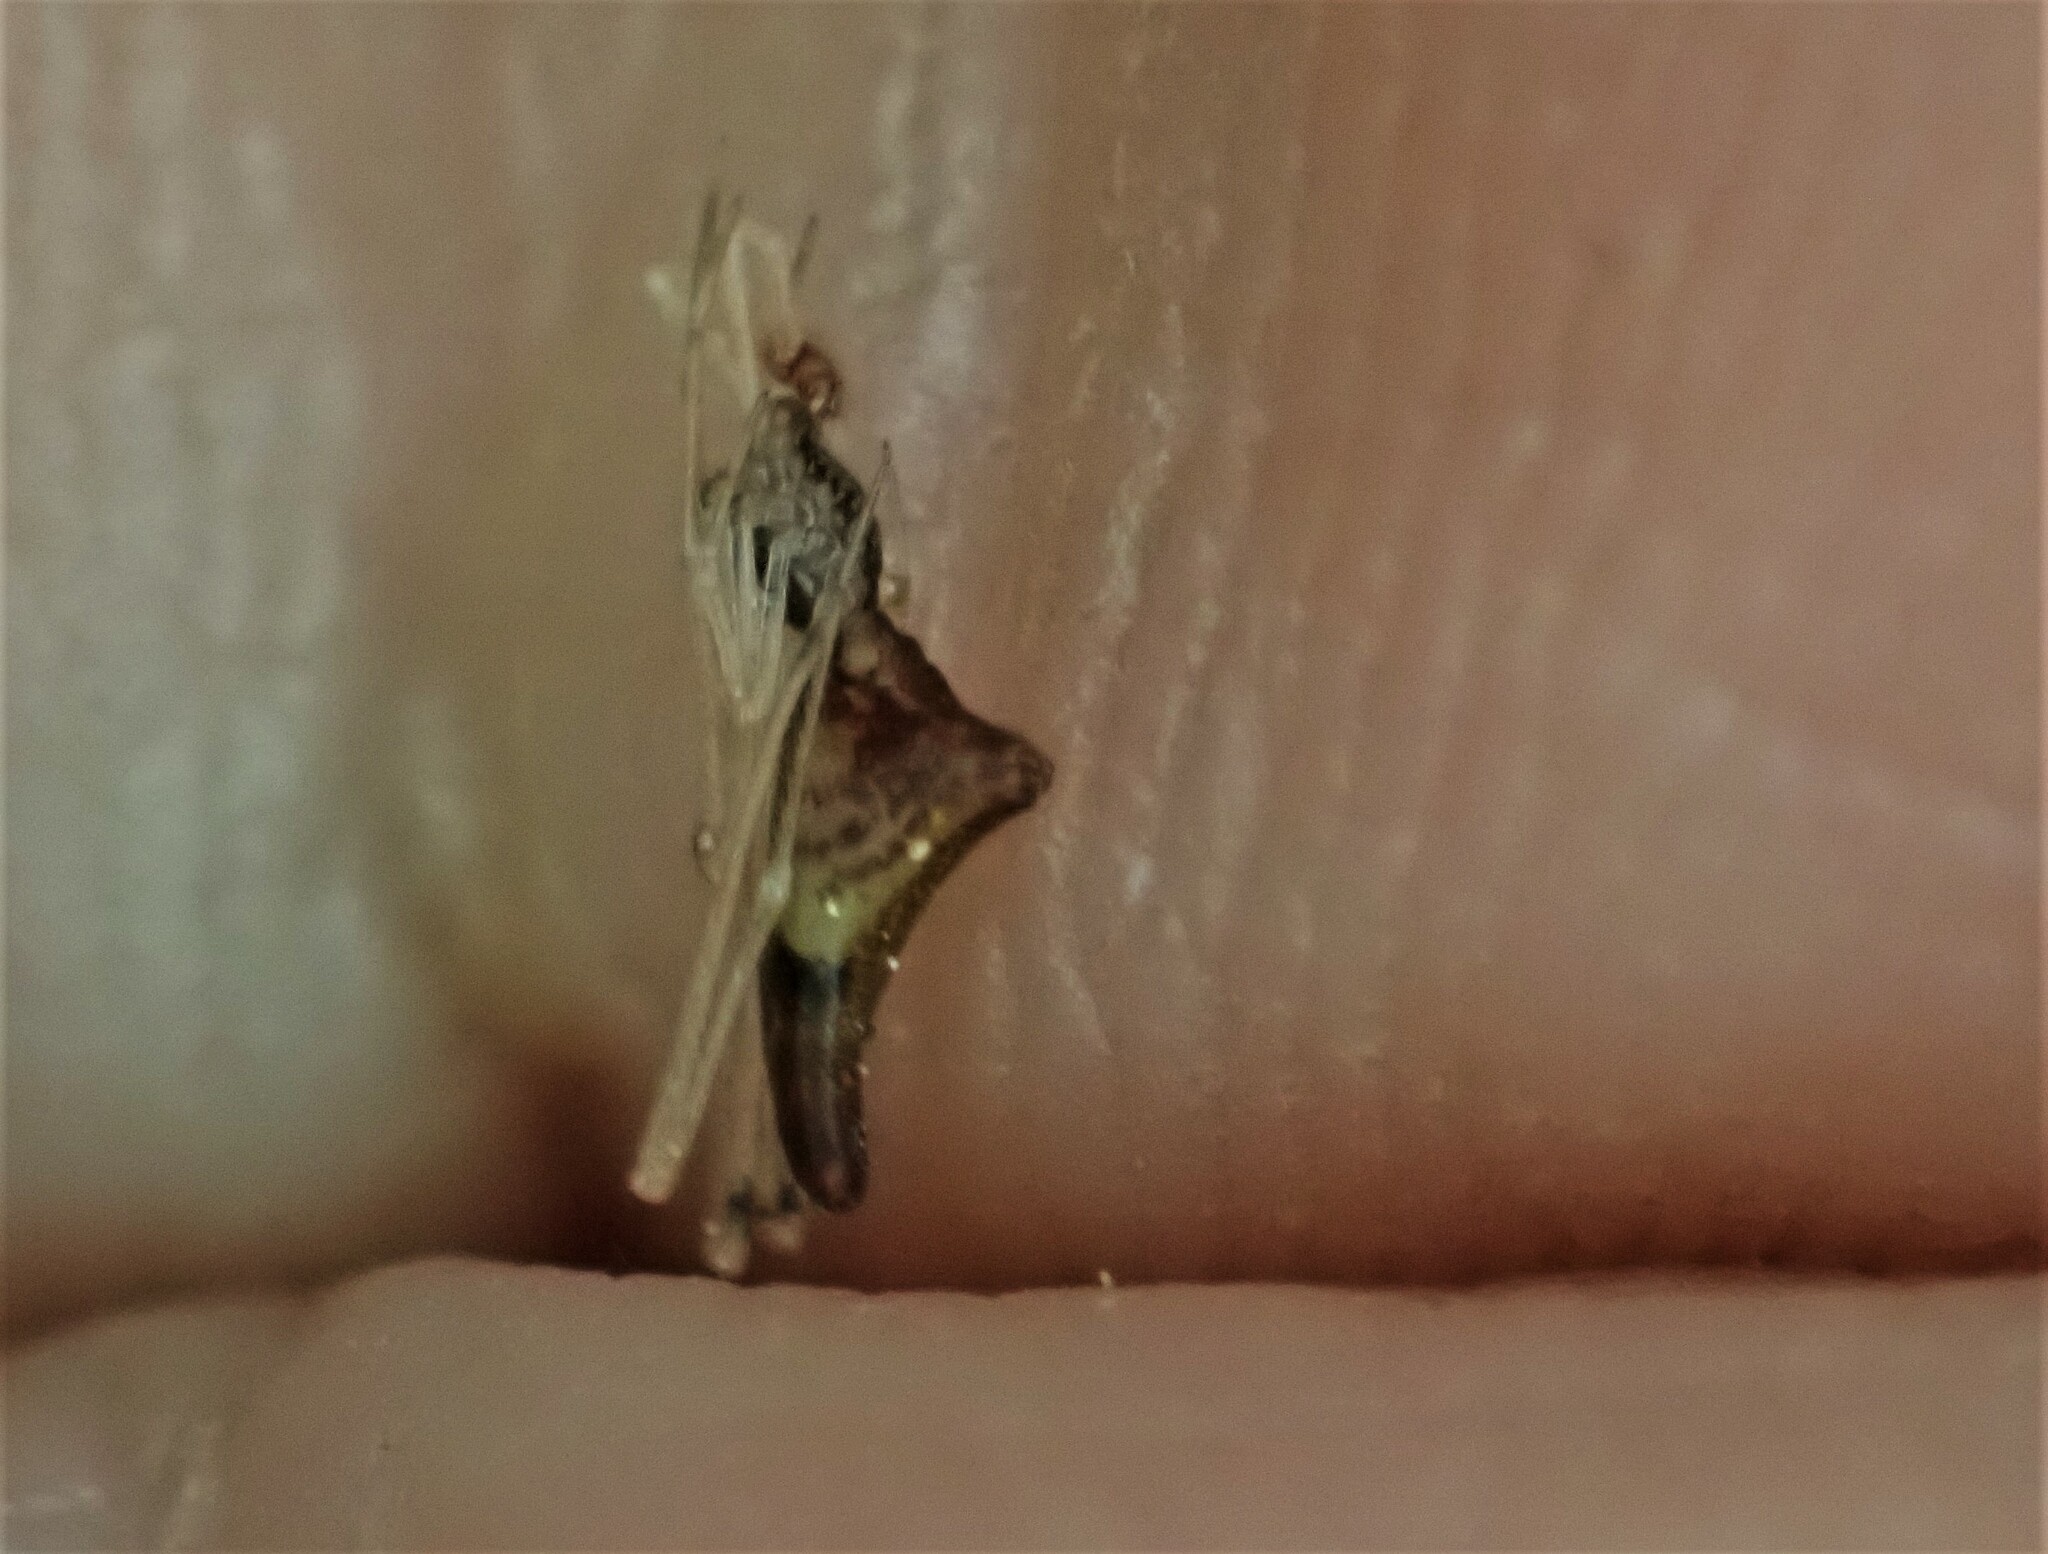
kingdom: Animalia
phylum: Arthropoda
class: Arachnida
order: Araneae
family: Theridiidae
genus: Rhomphaea
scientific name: Rhomphaea urquharti
